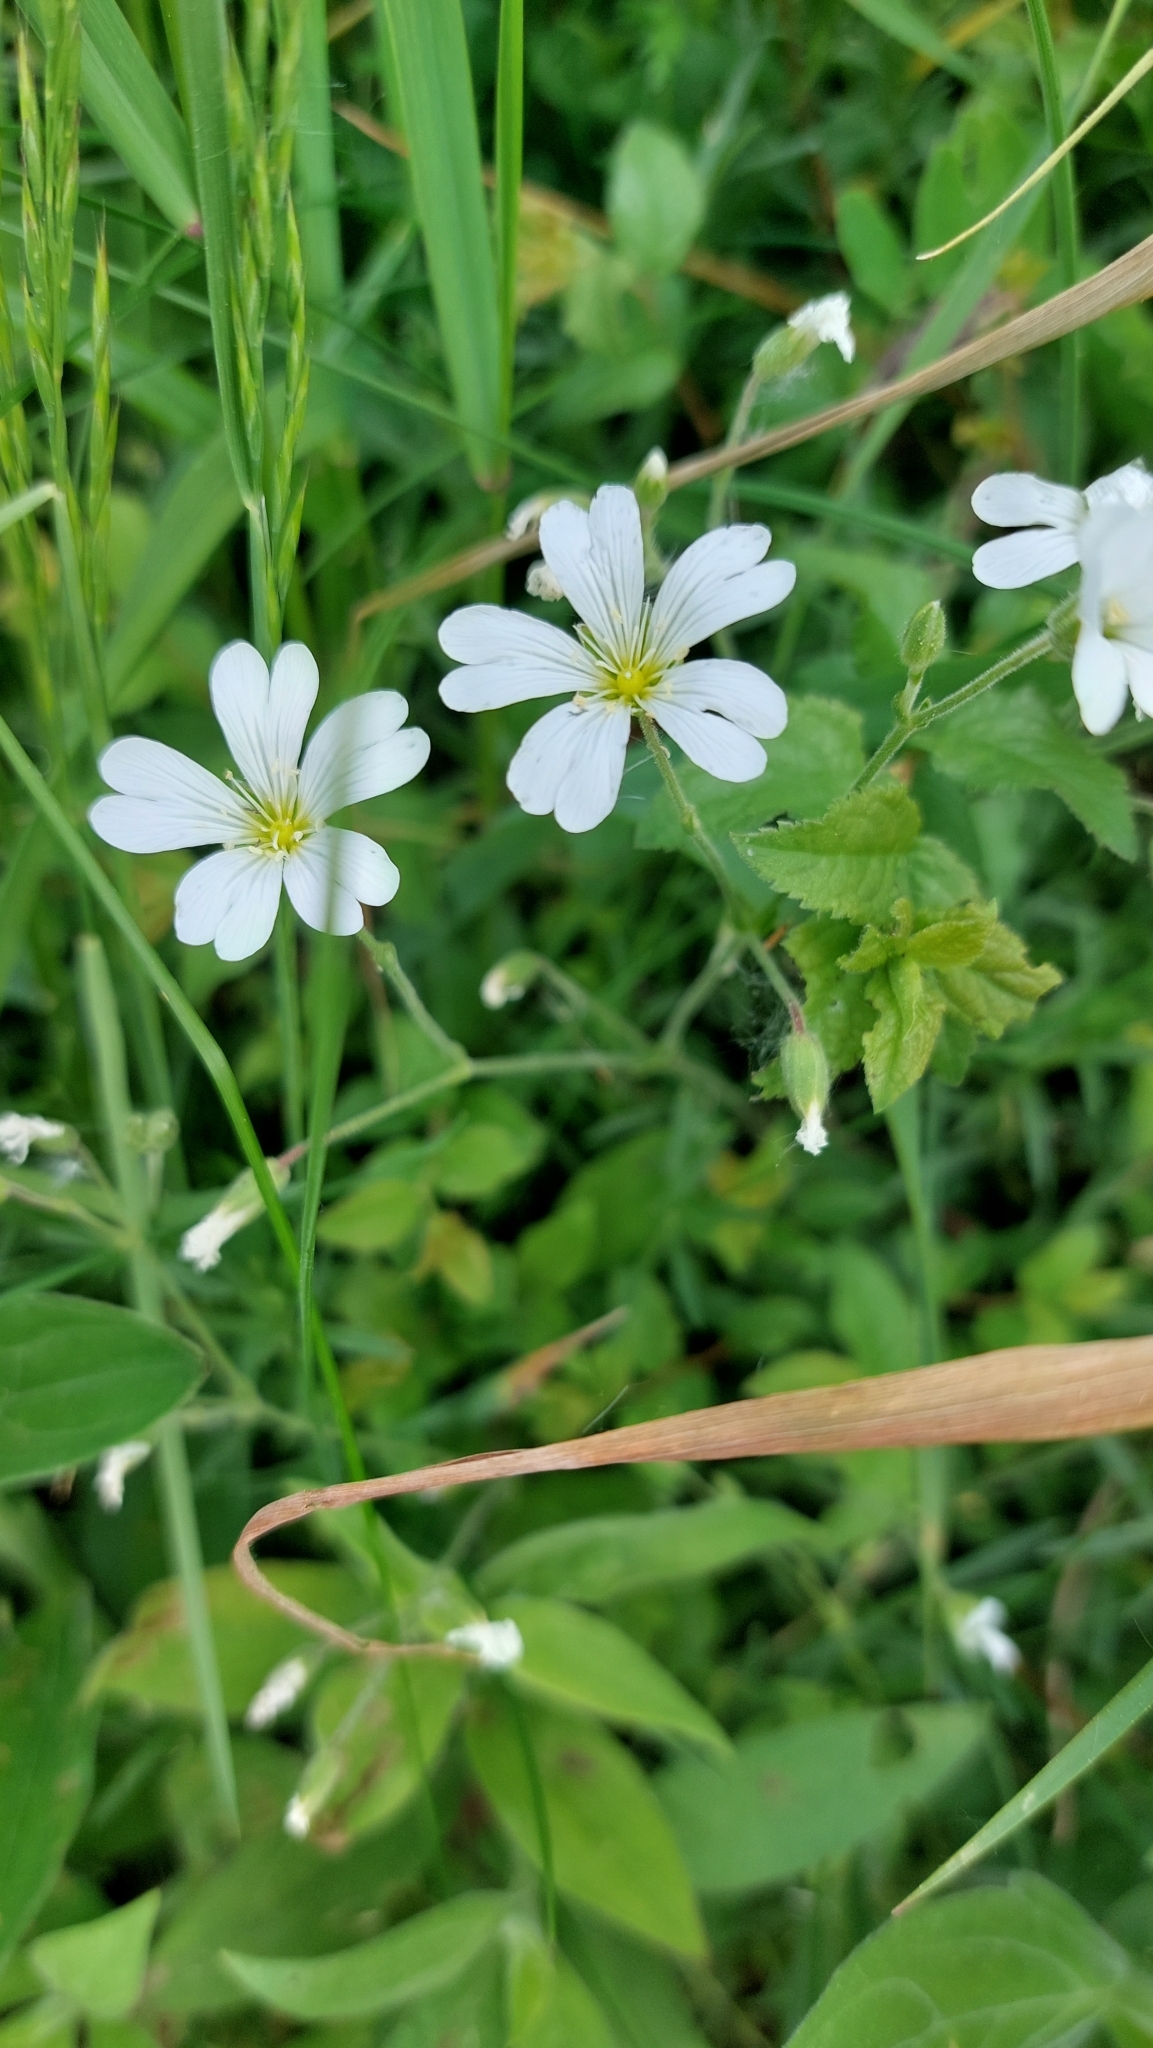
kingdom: Plantae
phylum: Tracheophyta
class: Magnoliopsida
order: Caryophyllales
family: Caryophyllaceae
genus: Cerastium
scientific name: Cerastium arvense
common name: Field mouse-ear
